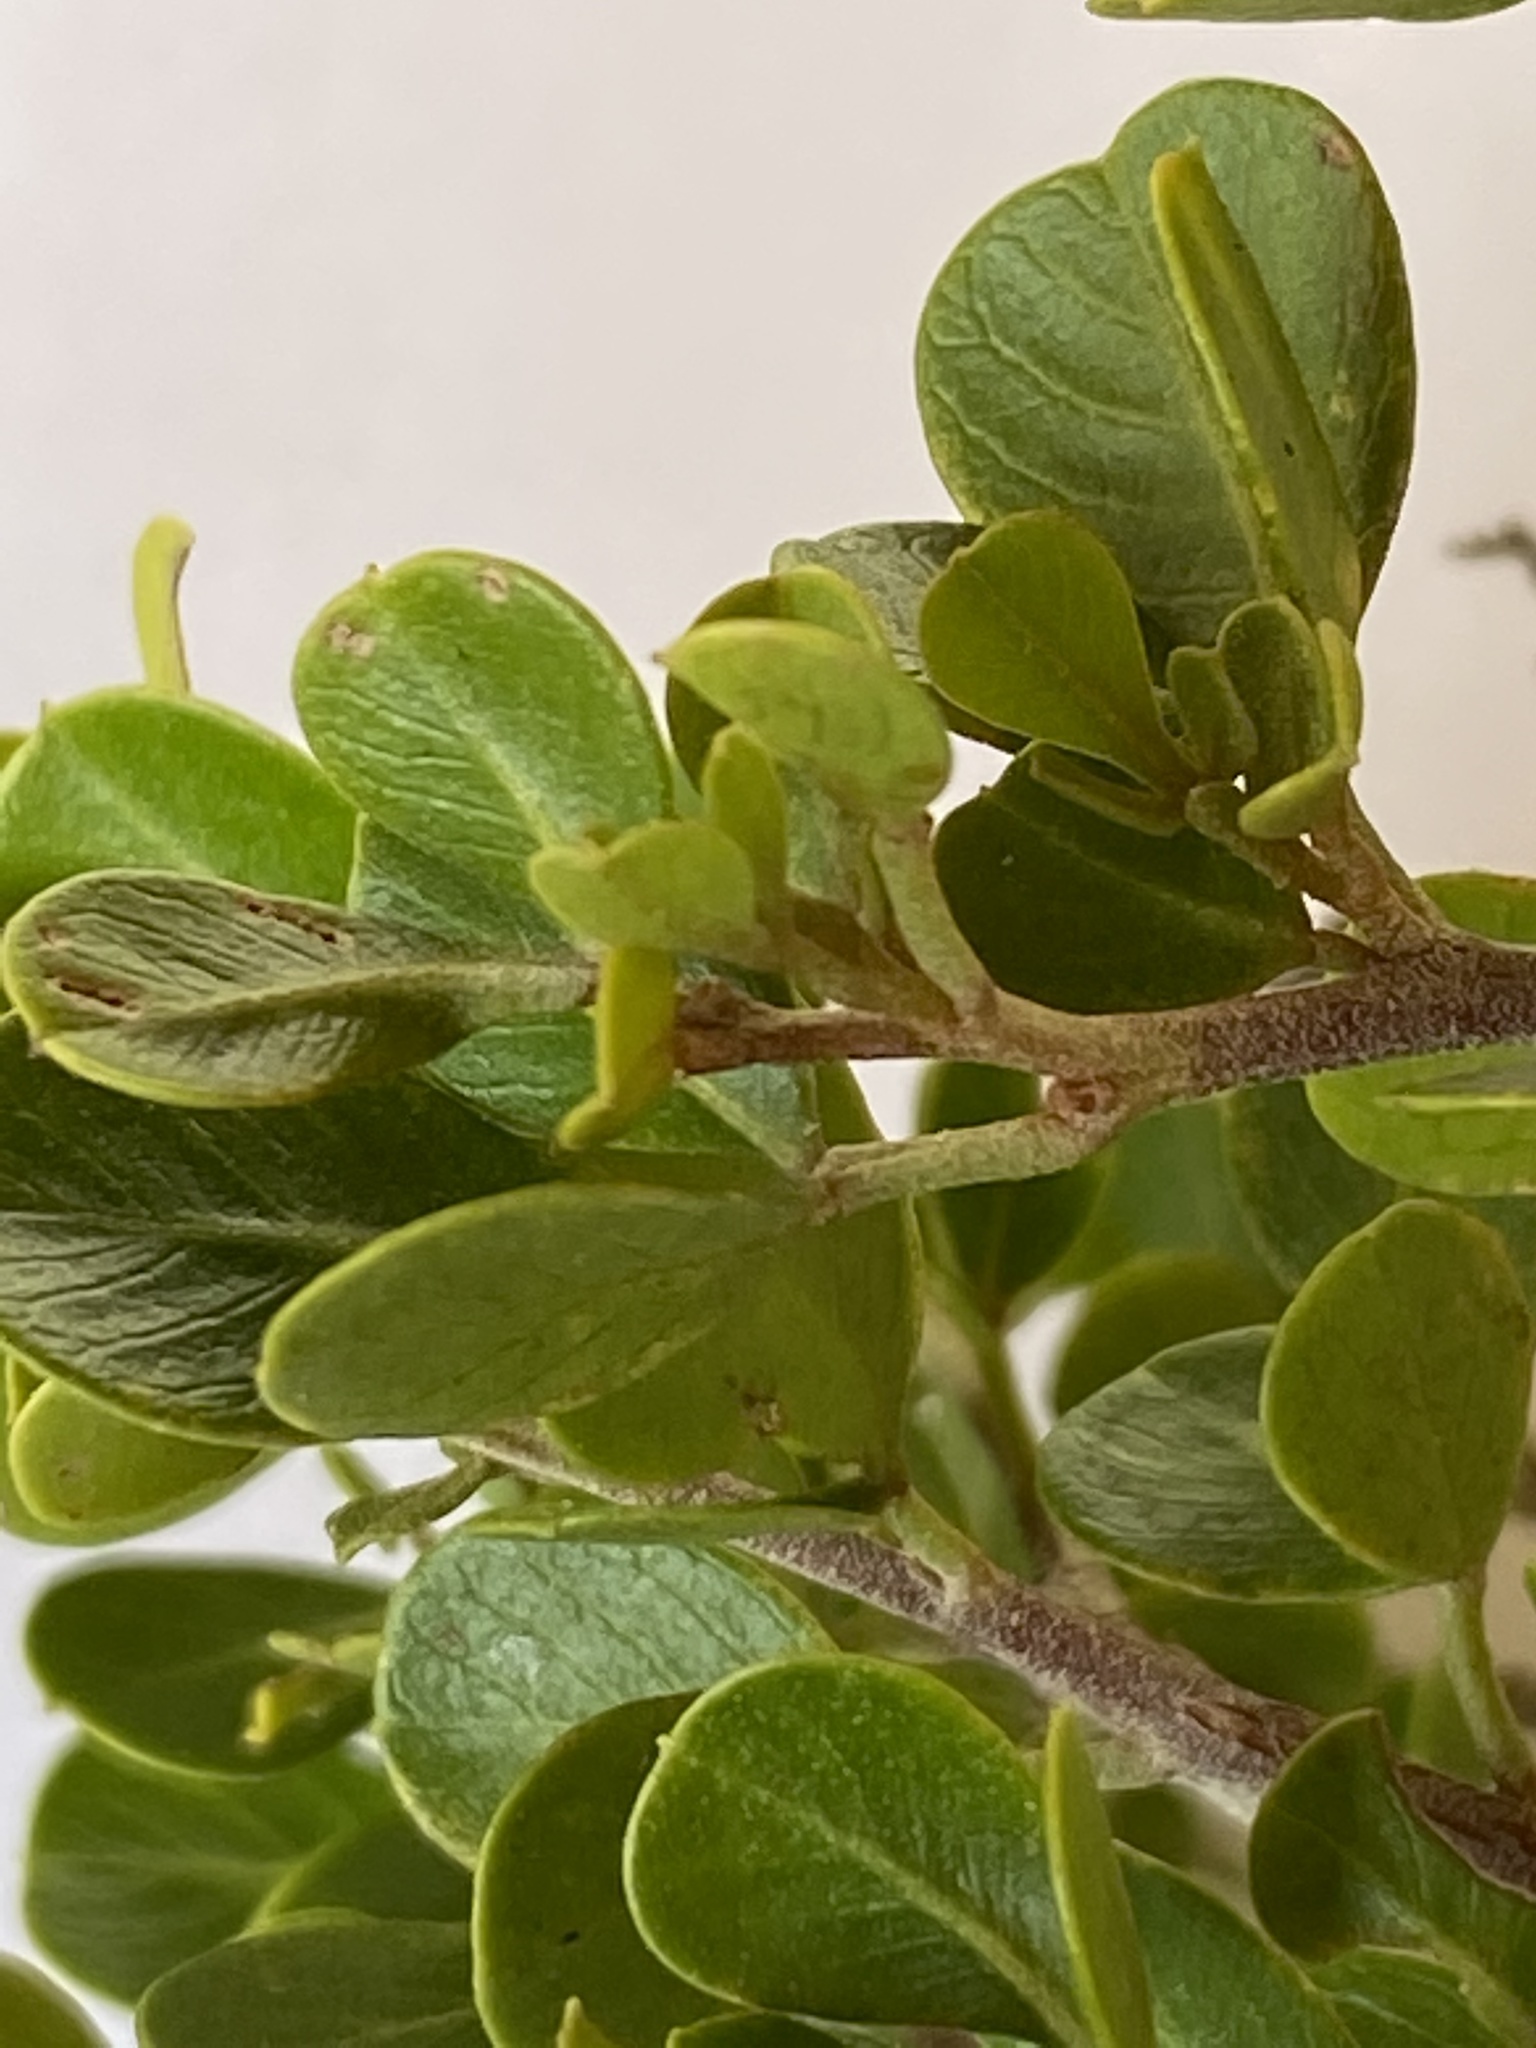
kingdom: Plantae
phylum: Tracheophyta
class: Magnoliopsida
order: Sapindales
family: Anacardiaceae
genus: Searsia
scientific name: Searsia glauca
